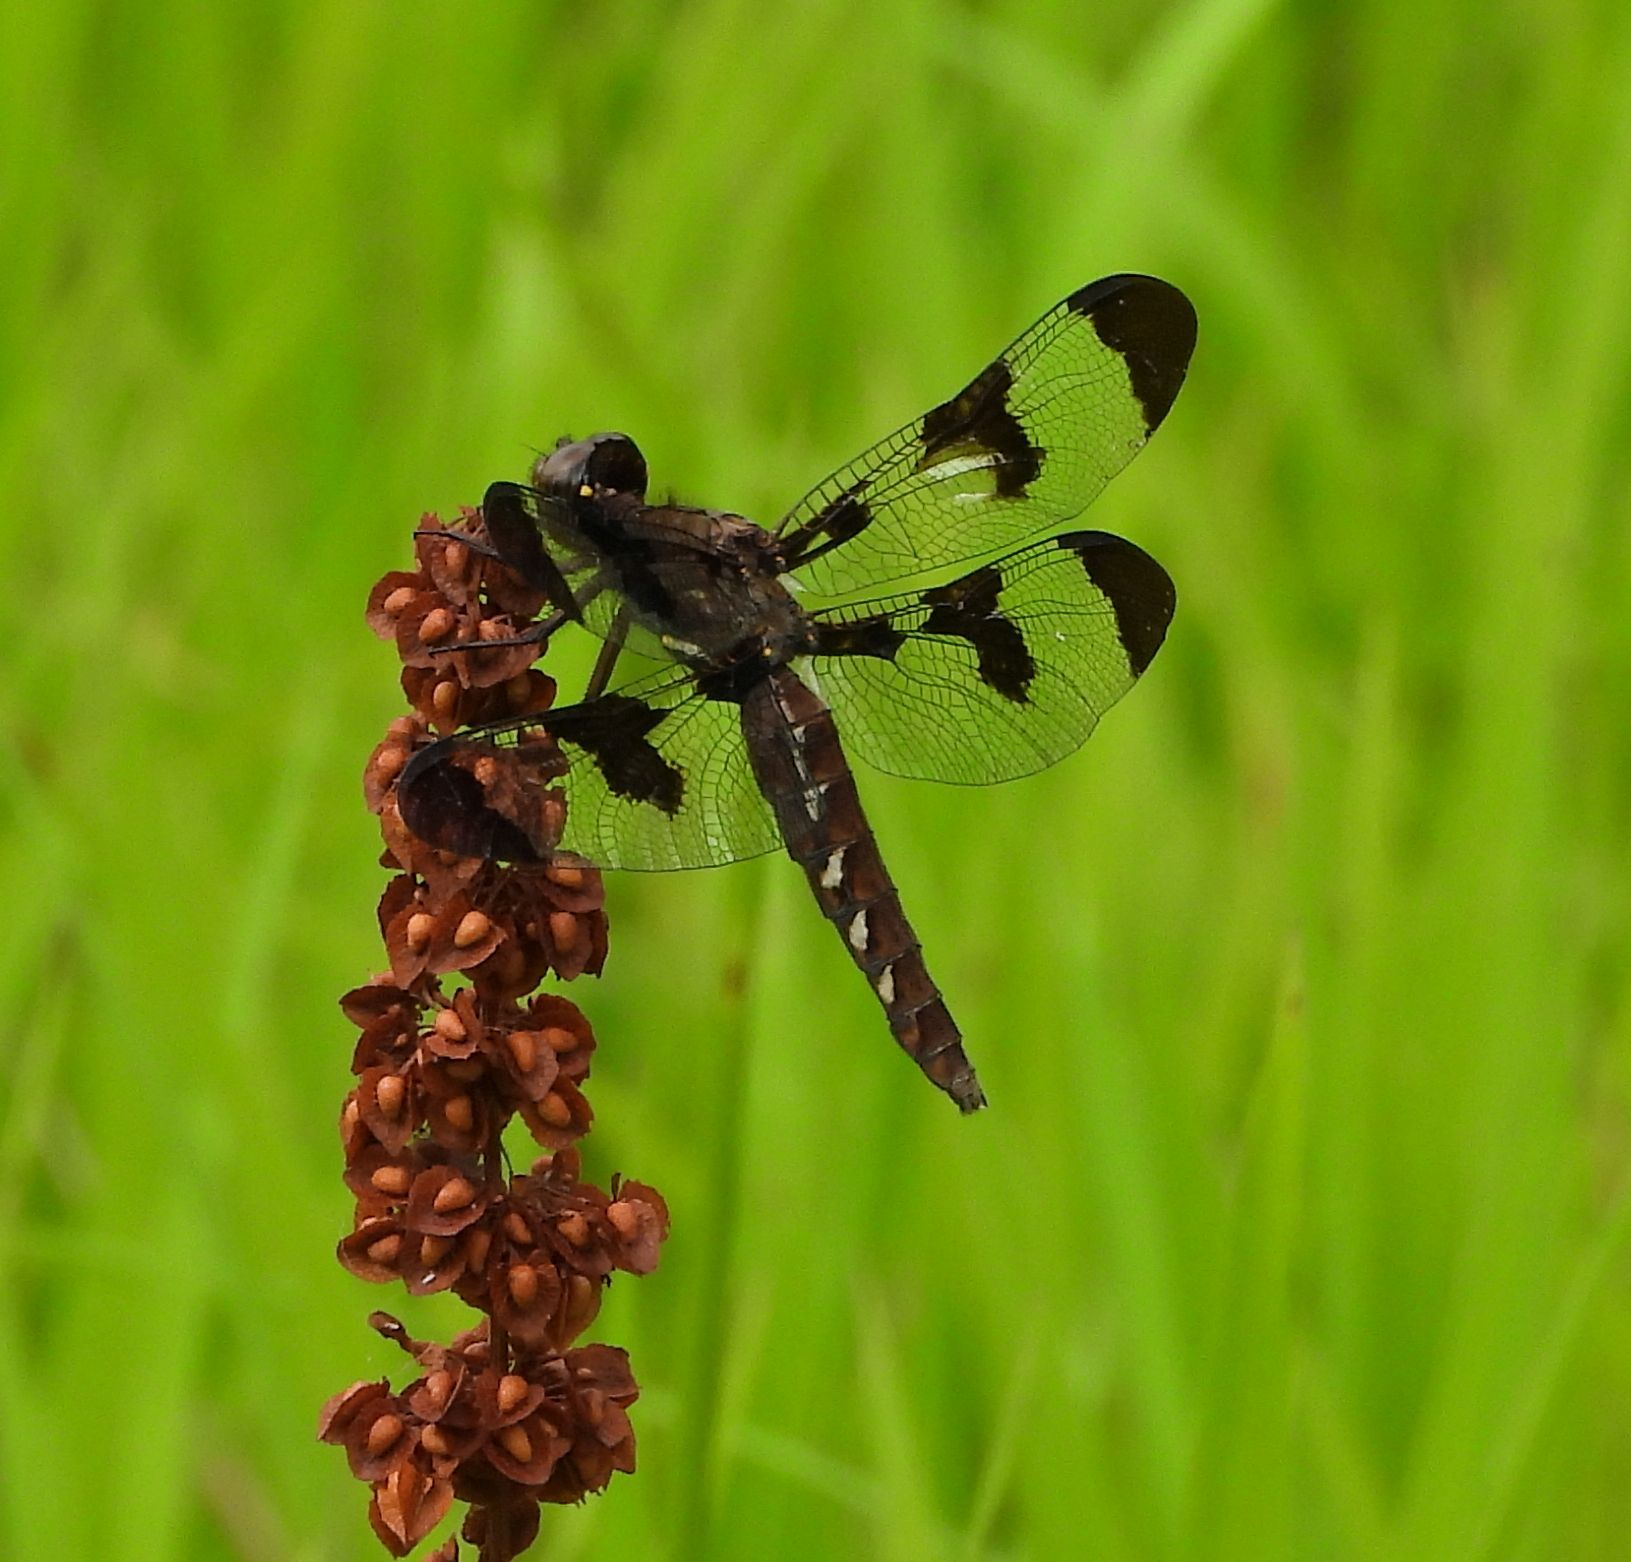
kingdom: Animalia
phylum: Arthropoda
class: Insecta
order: Odonata
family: Libellulidae
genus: Plathemis
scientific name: Plathemis lydia
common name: Common whitetail
